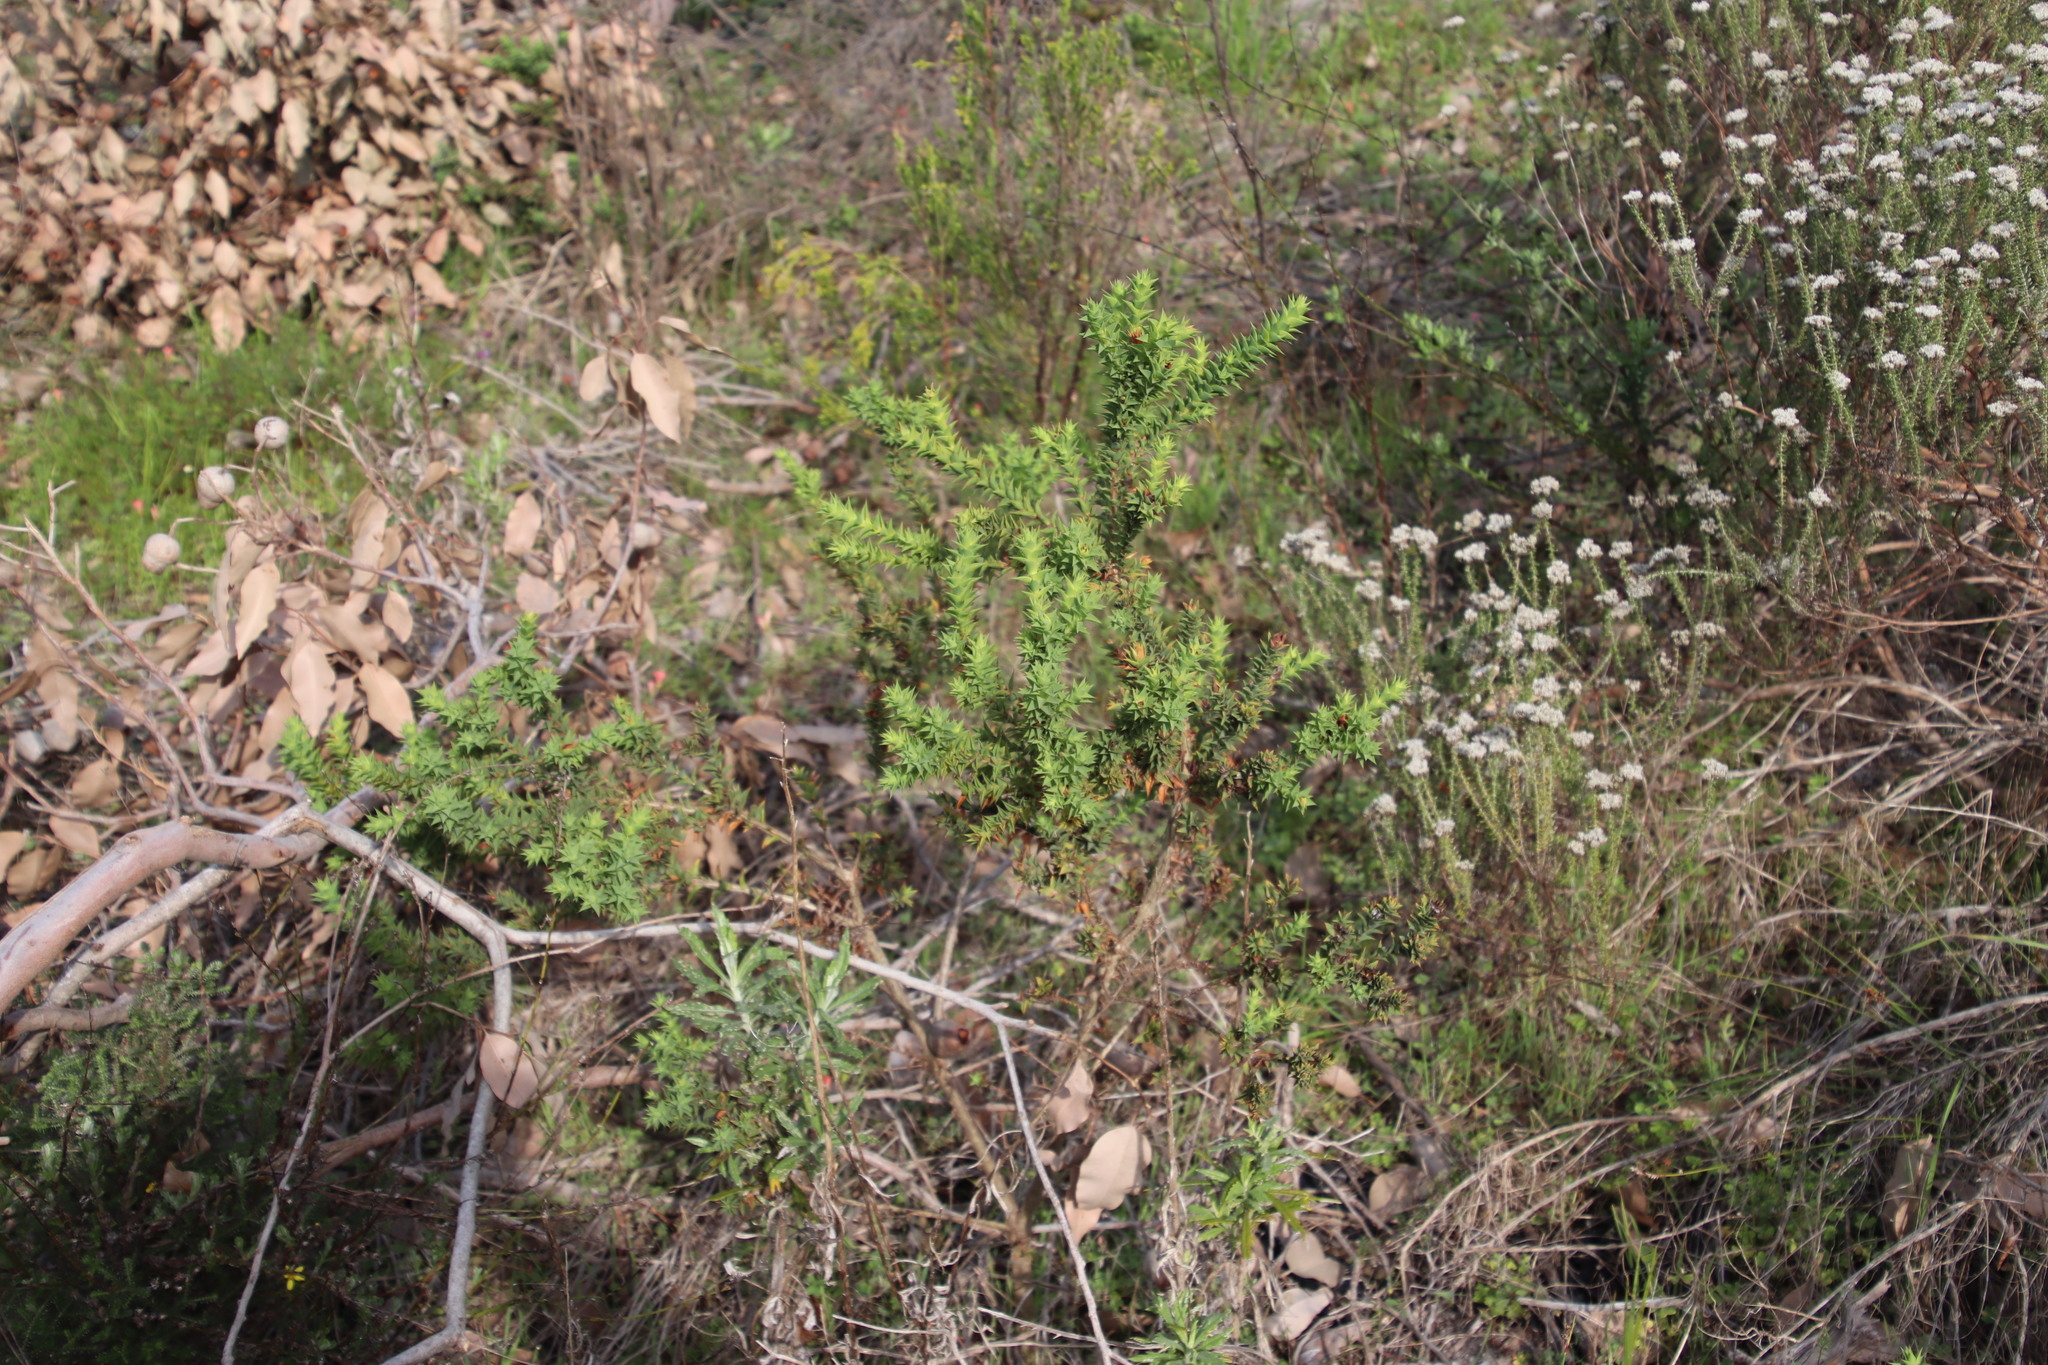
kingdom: Plantae
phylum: Tracheophyta
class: Magnoliopsida
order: Fabales
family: Fabaceae
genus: Aspalathus
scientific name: Aspalathus cordata
